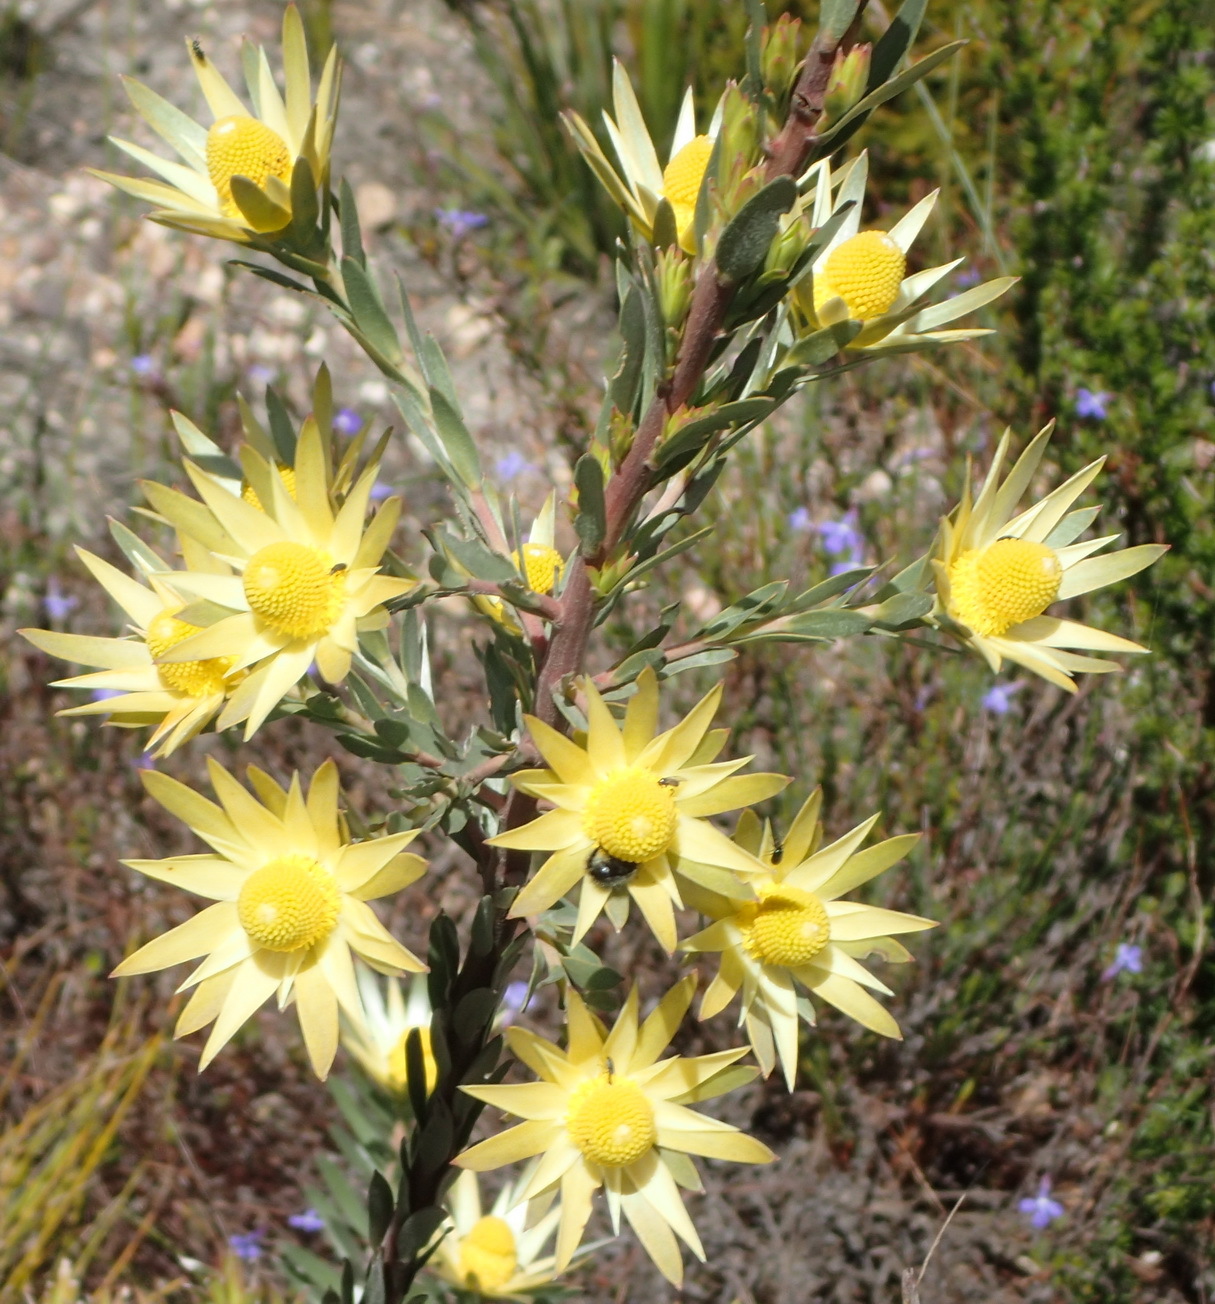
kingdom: Plantae
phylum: Tracheophyta
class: Magnoliopsida
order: Proteales
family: Proteaceae
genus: Leucadendron
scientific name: Leucadendron uliginosum
